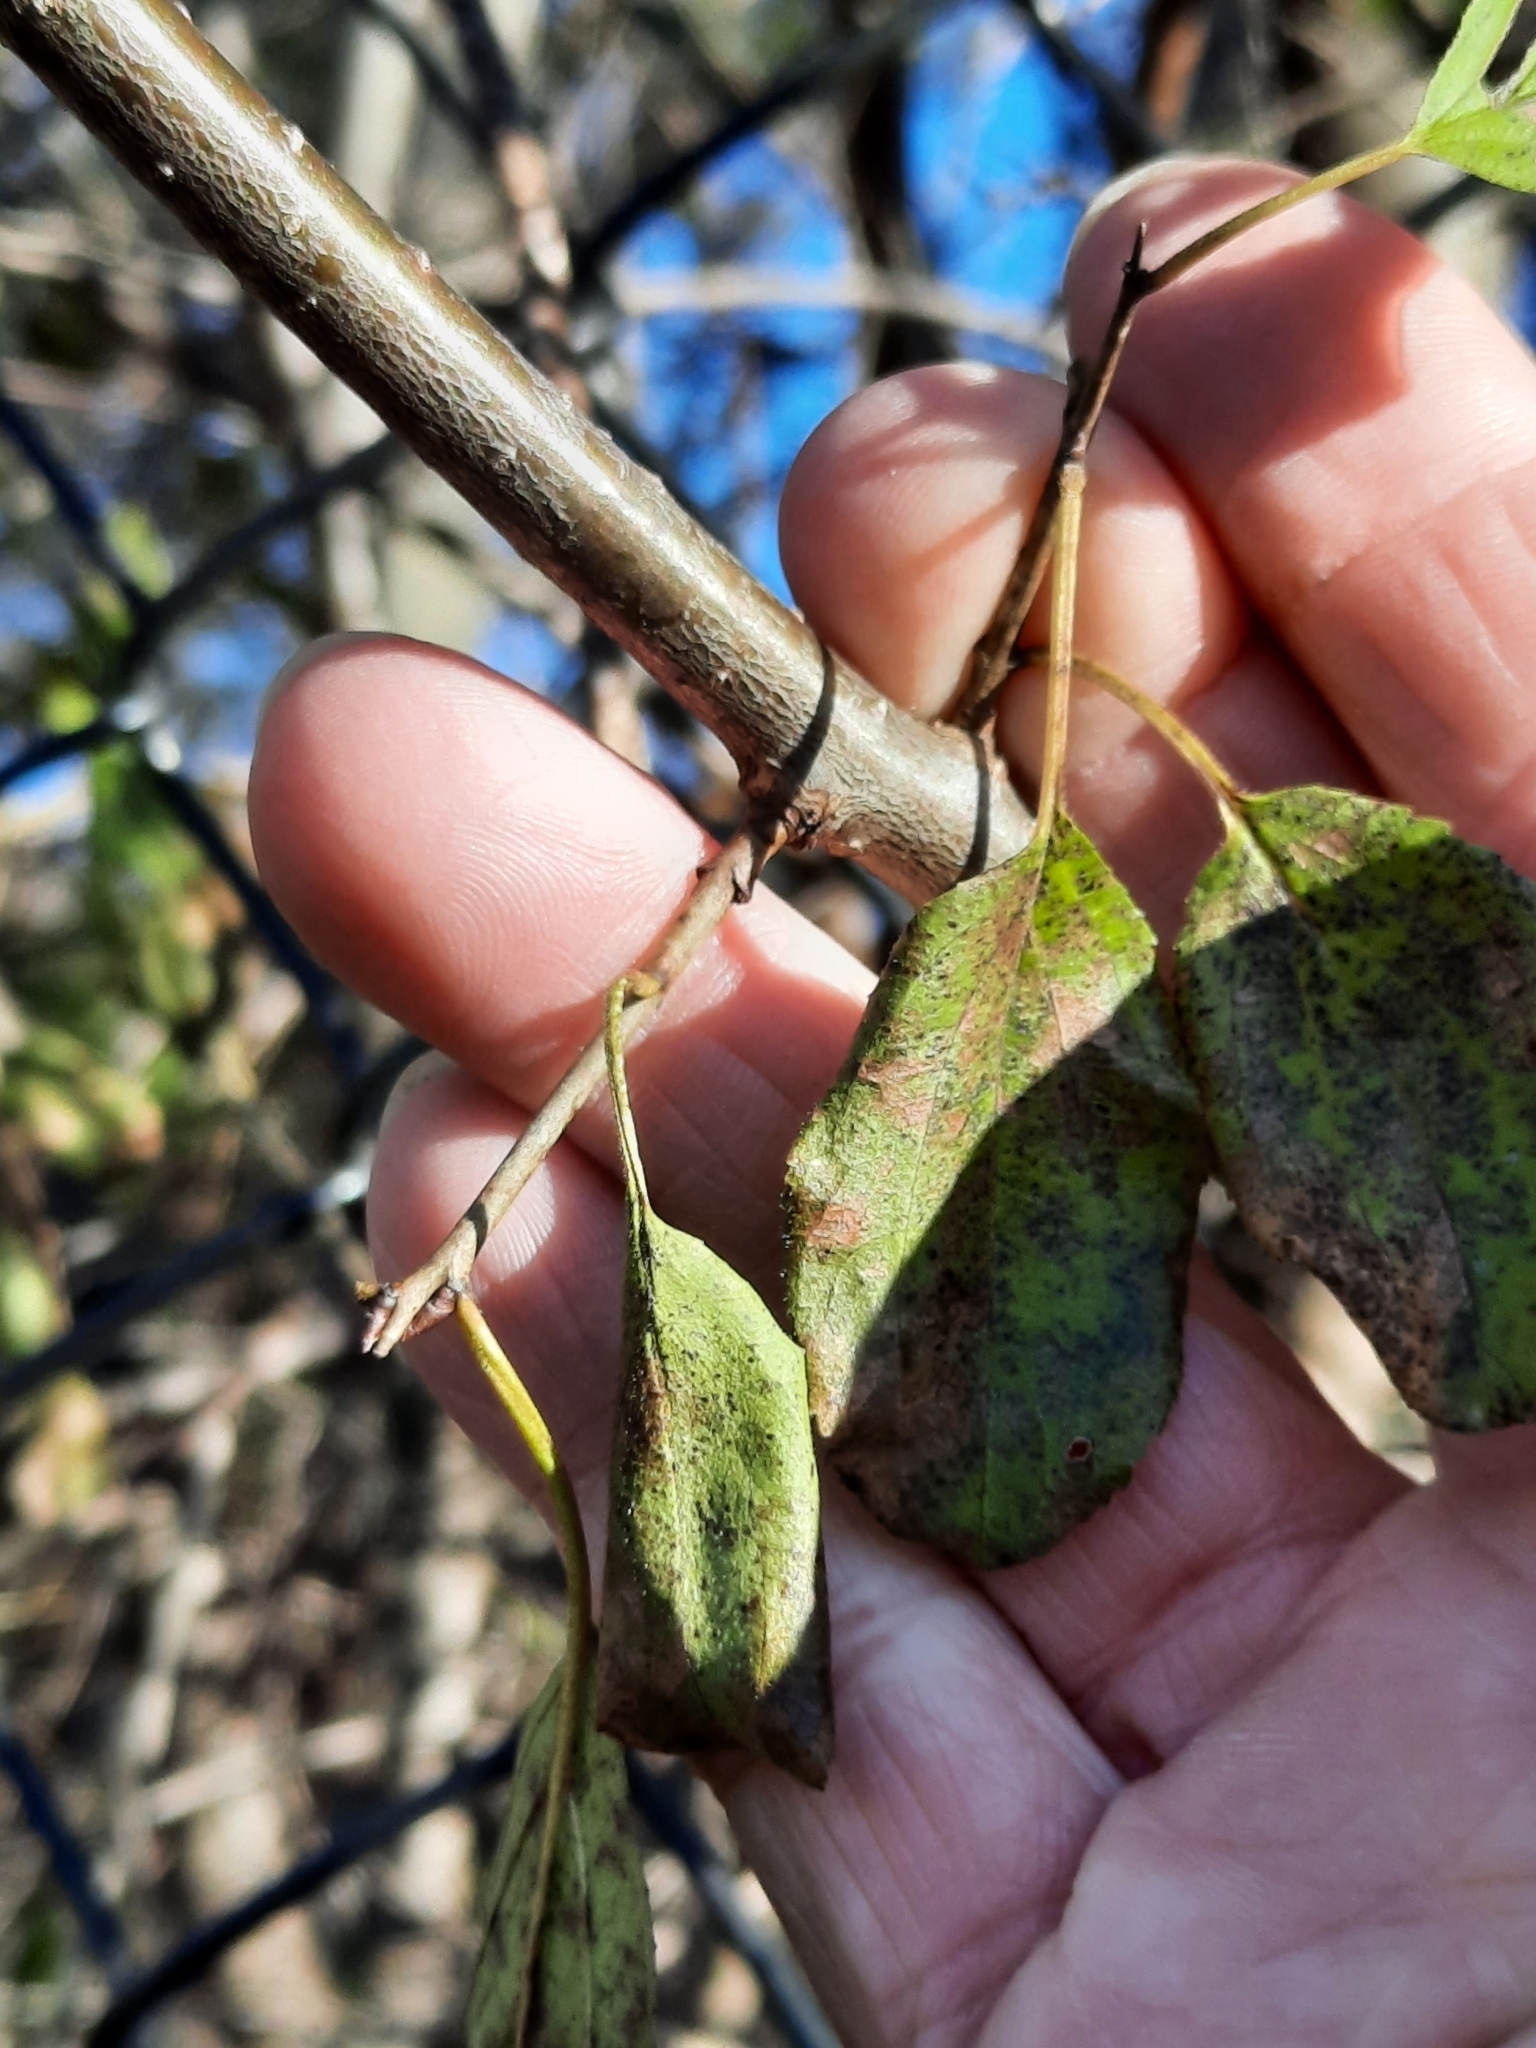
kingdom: Plantae
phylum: Tracheophyta
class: Magnoliopsida
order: Rosales
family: Rhamnaceae
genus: Rhamnus
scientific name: Rhamnus cathartica
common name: Common buckthorn
